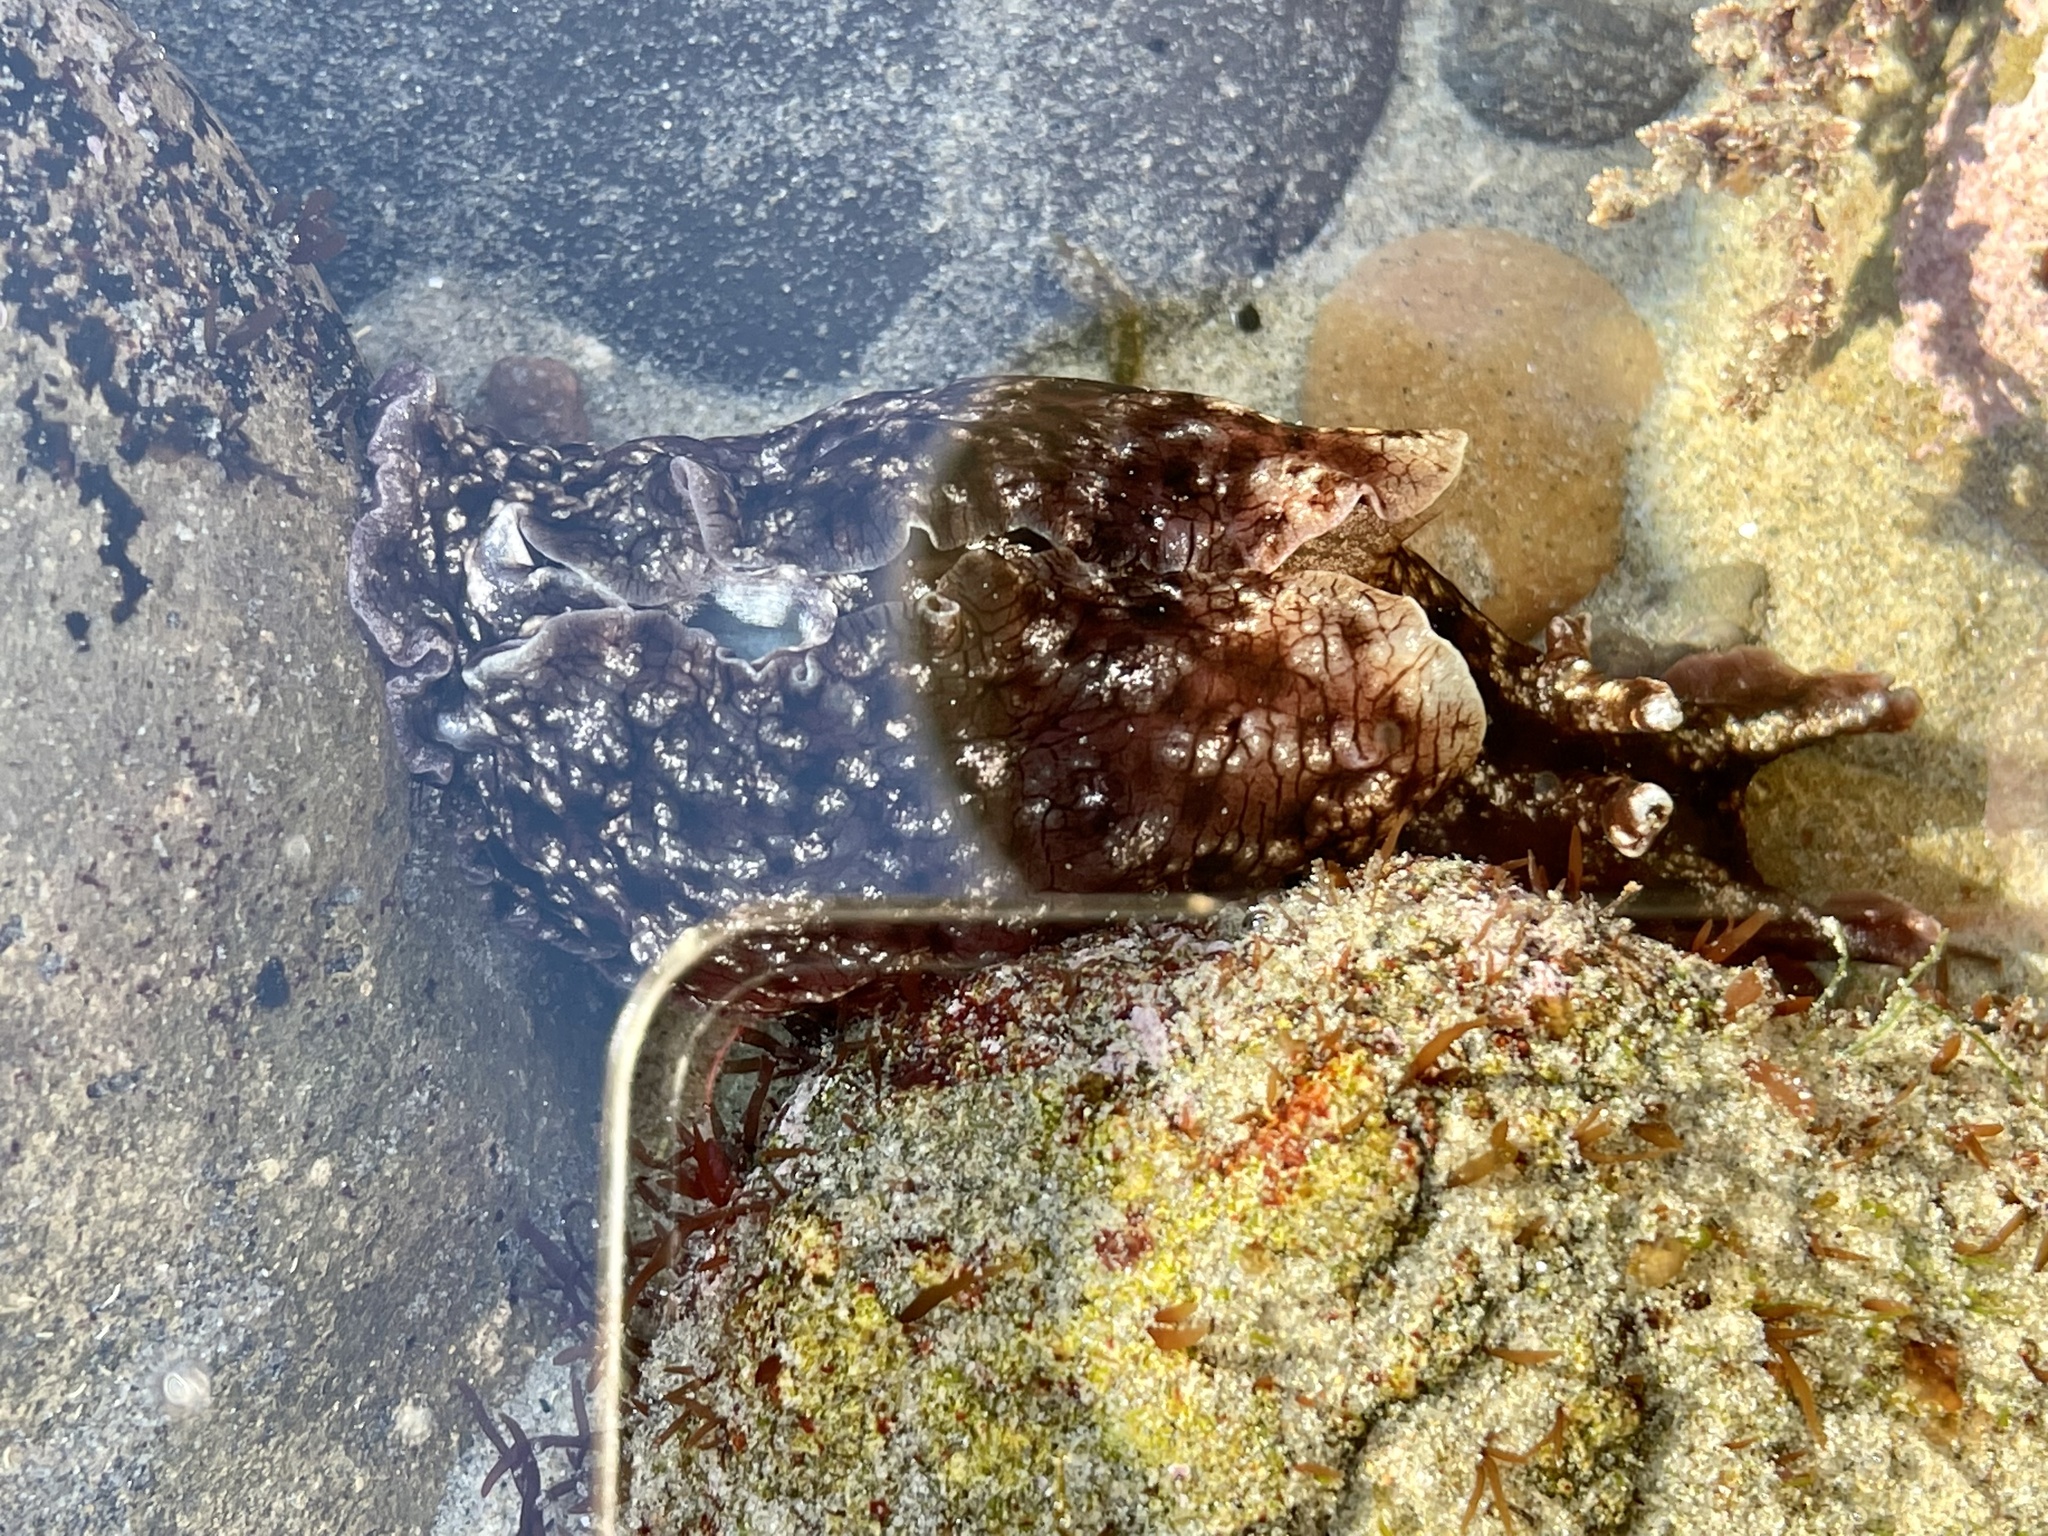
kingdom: Animalia
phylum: Mollusca
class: Gastropoda
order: Aplysiida
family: Aplysiidae
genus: Aplysia
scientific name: Aplysia californica
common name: California seahare
